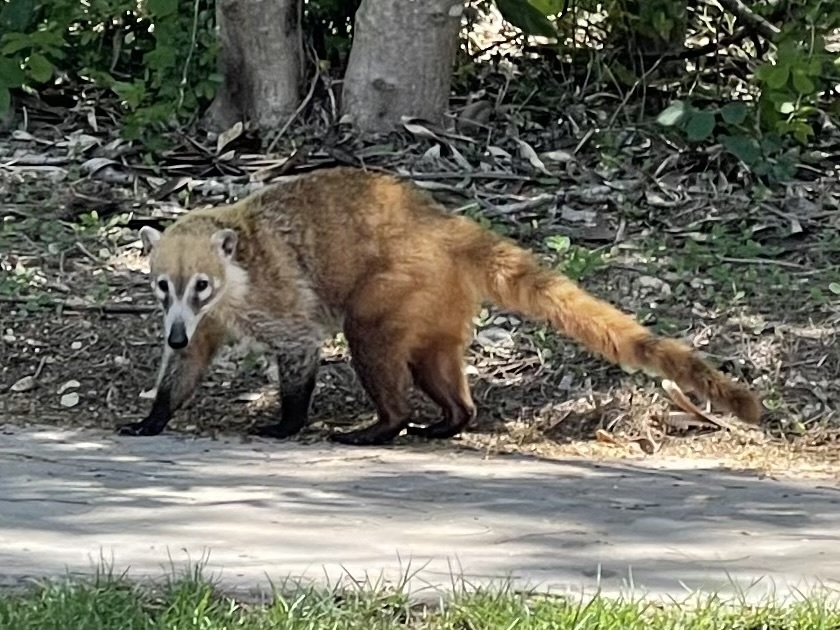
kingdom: Animalia
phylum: Chordata
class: Mammalia
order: Carnivora
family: Procyonidae
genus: Nasua
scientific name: Nasua narica
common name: White-nosed coati
